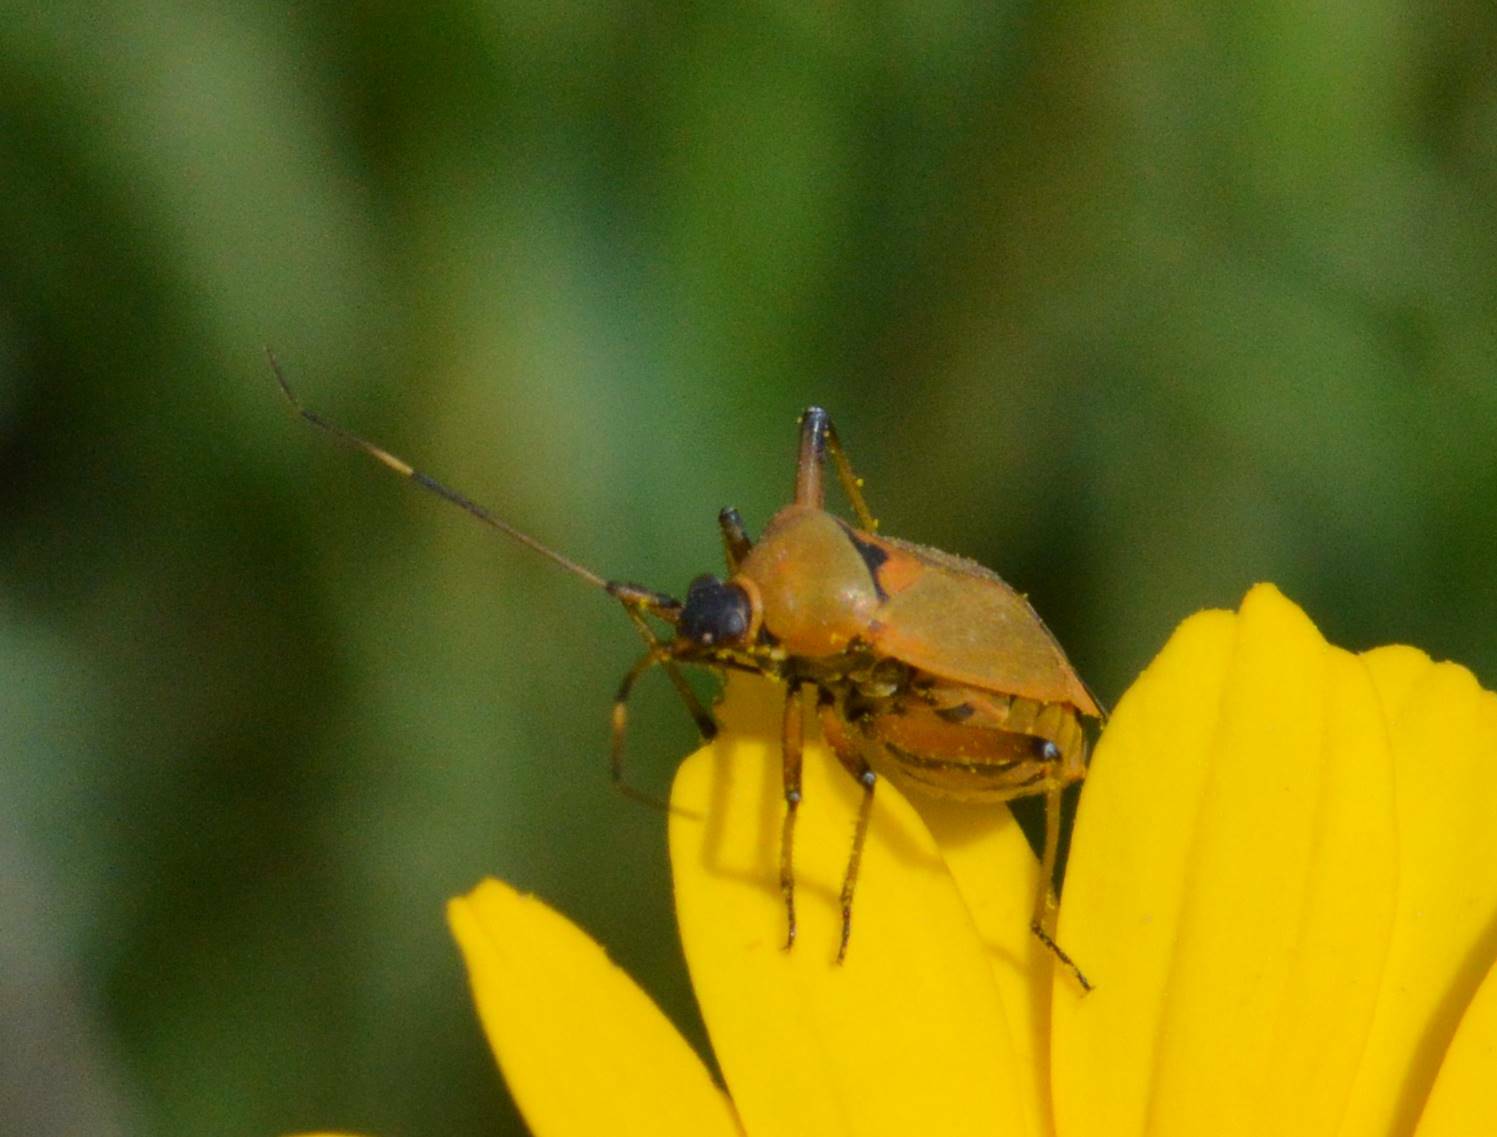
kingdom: Animalia
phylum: Arthropoda
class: Insecta
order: Hemiptera
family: Miridae
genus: Calocoris
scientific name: Calocoris nemoralis
